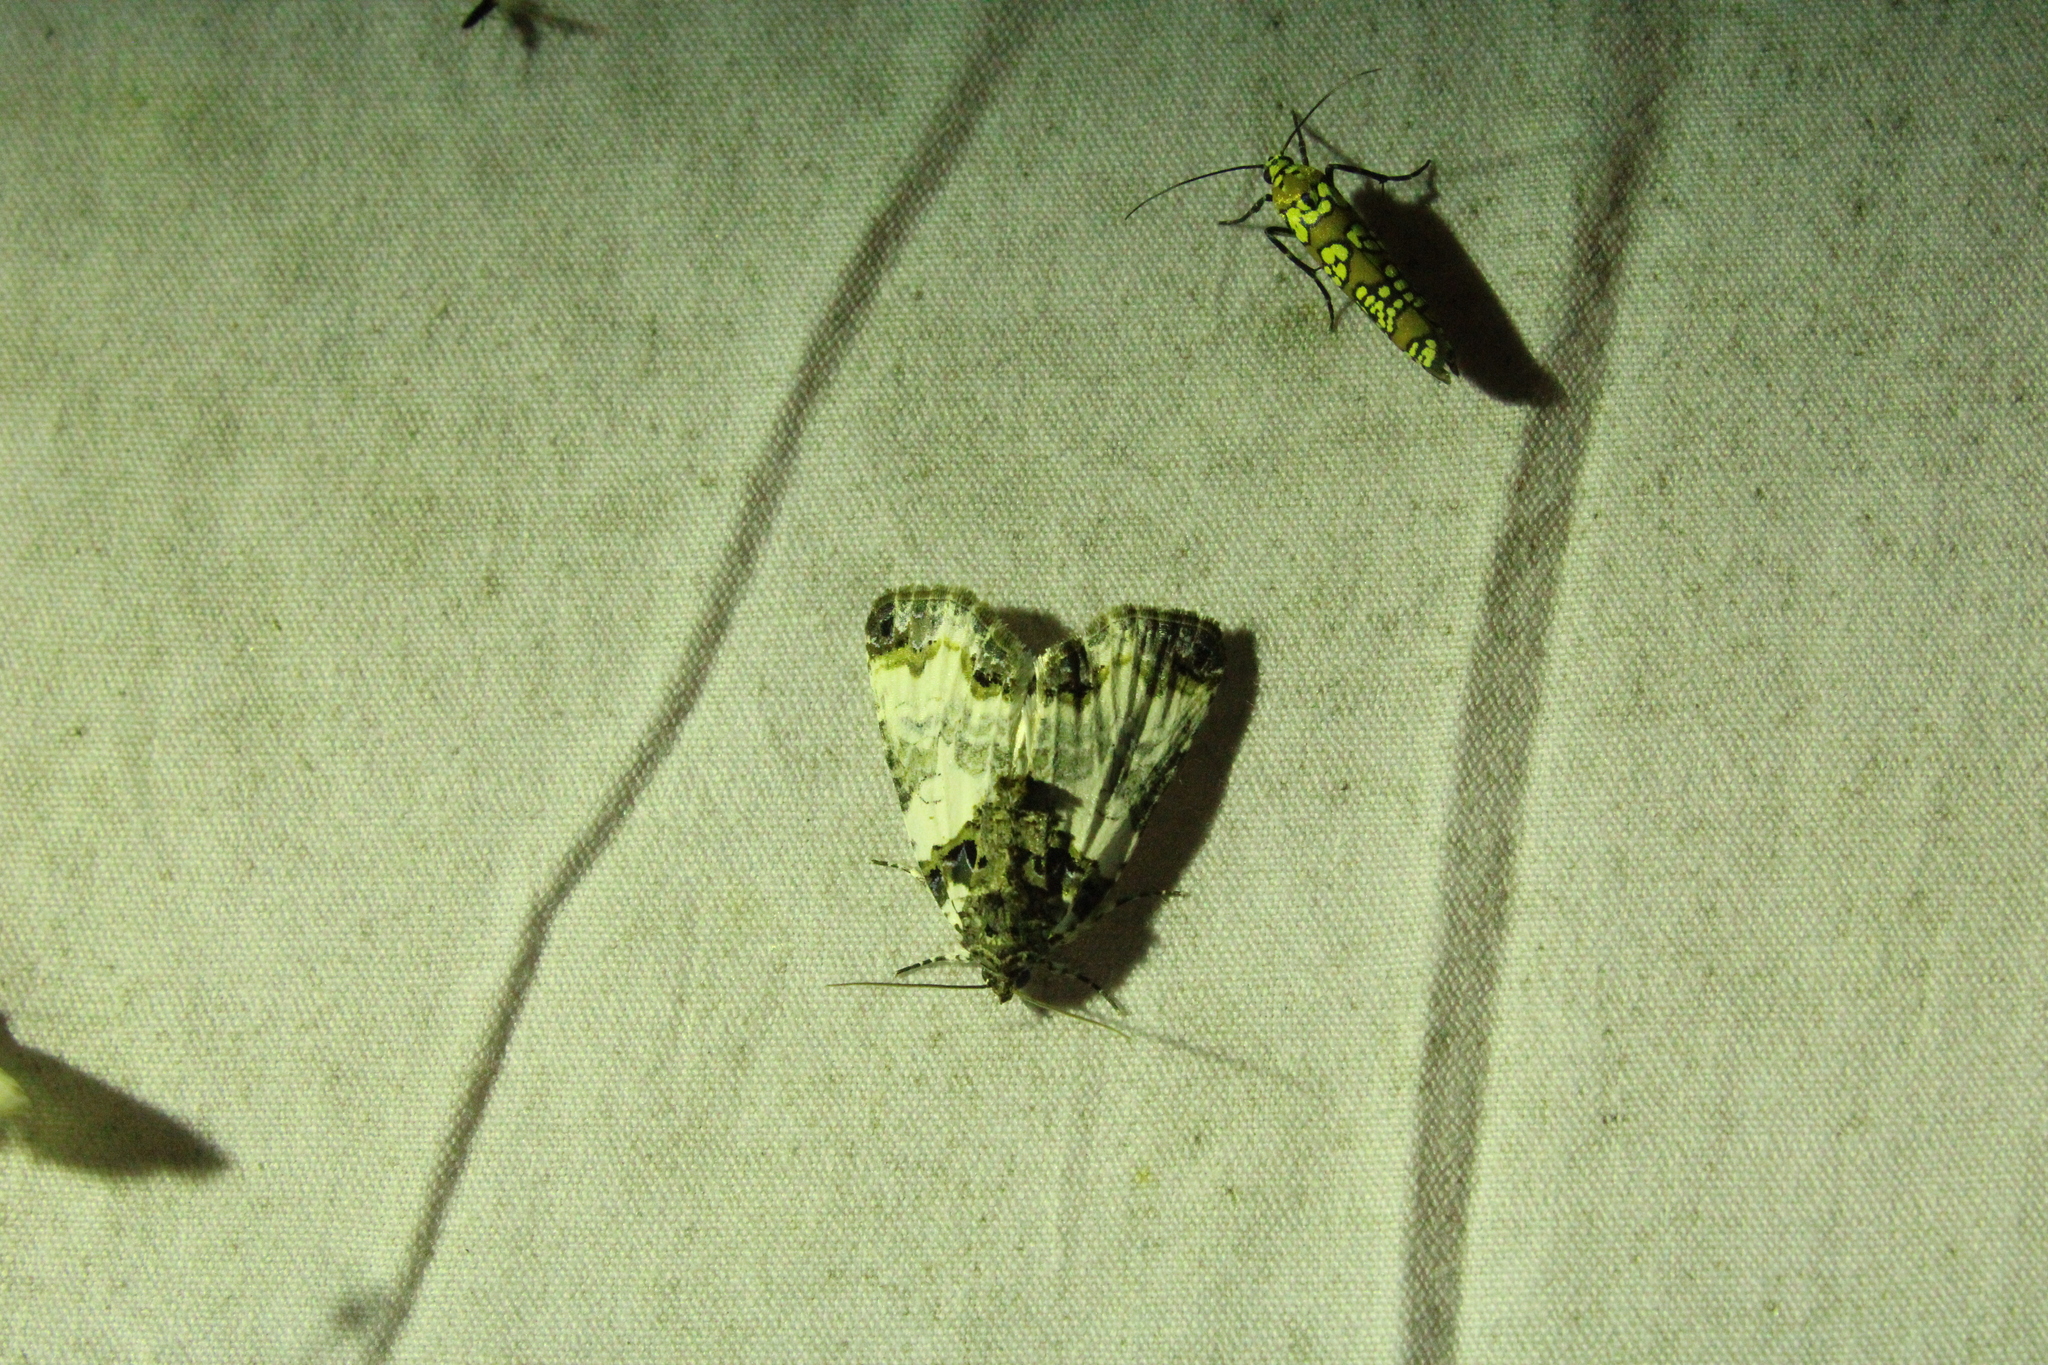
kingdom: Animalia
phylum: Arthropoda
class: Insecta
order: Lepidoptera
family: Noctuidae
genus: Cerma
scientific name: Cerma cerintha
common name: Tufted bird-dropping moth
